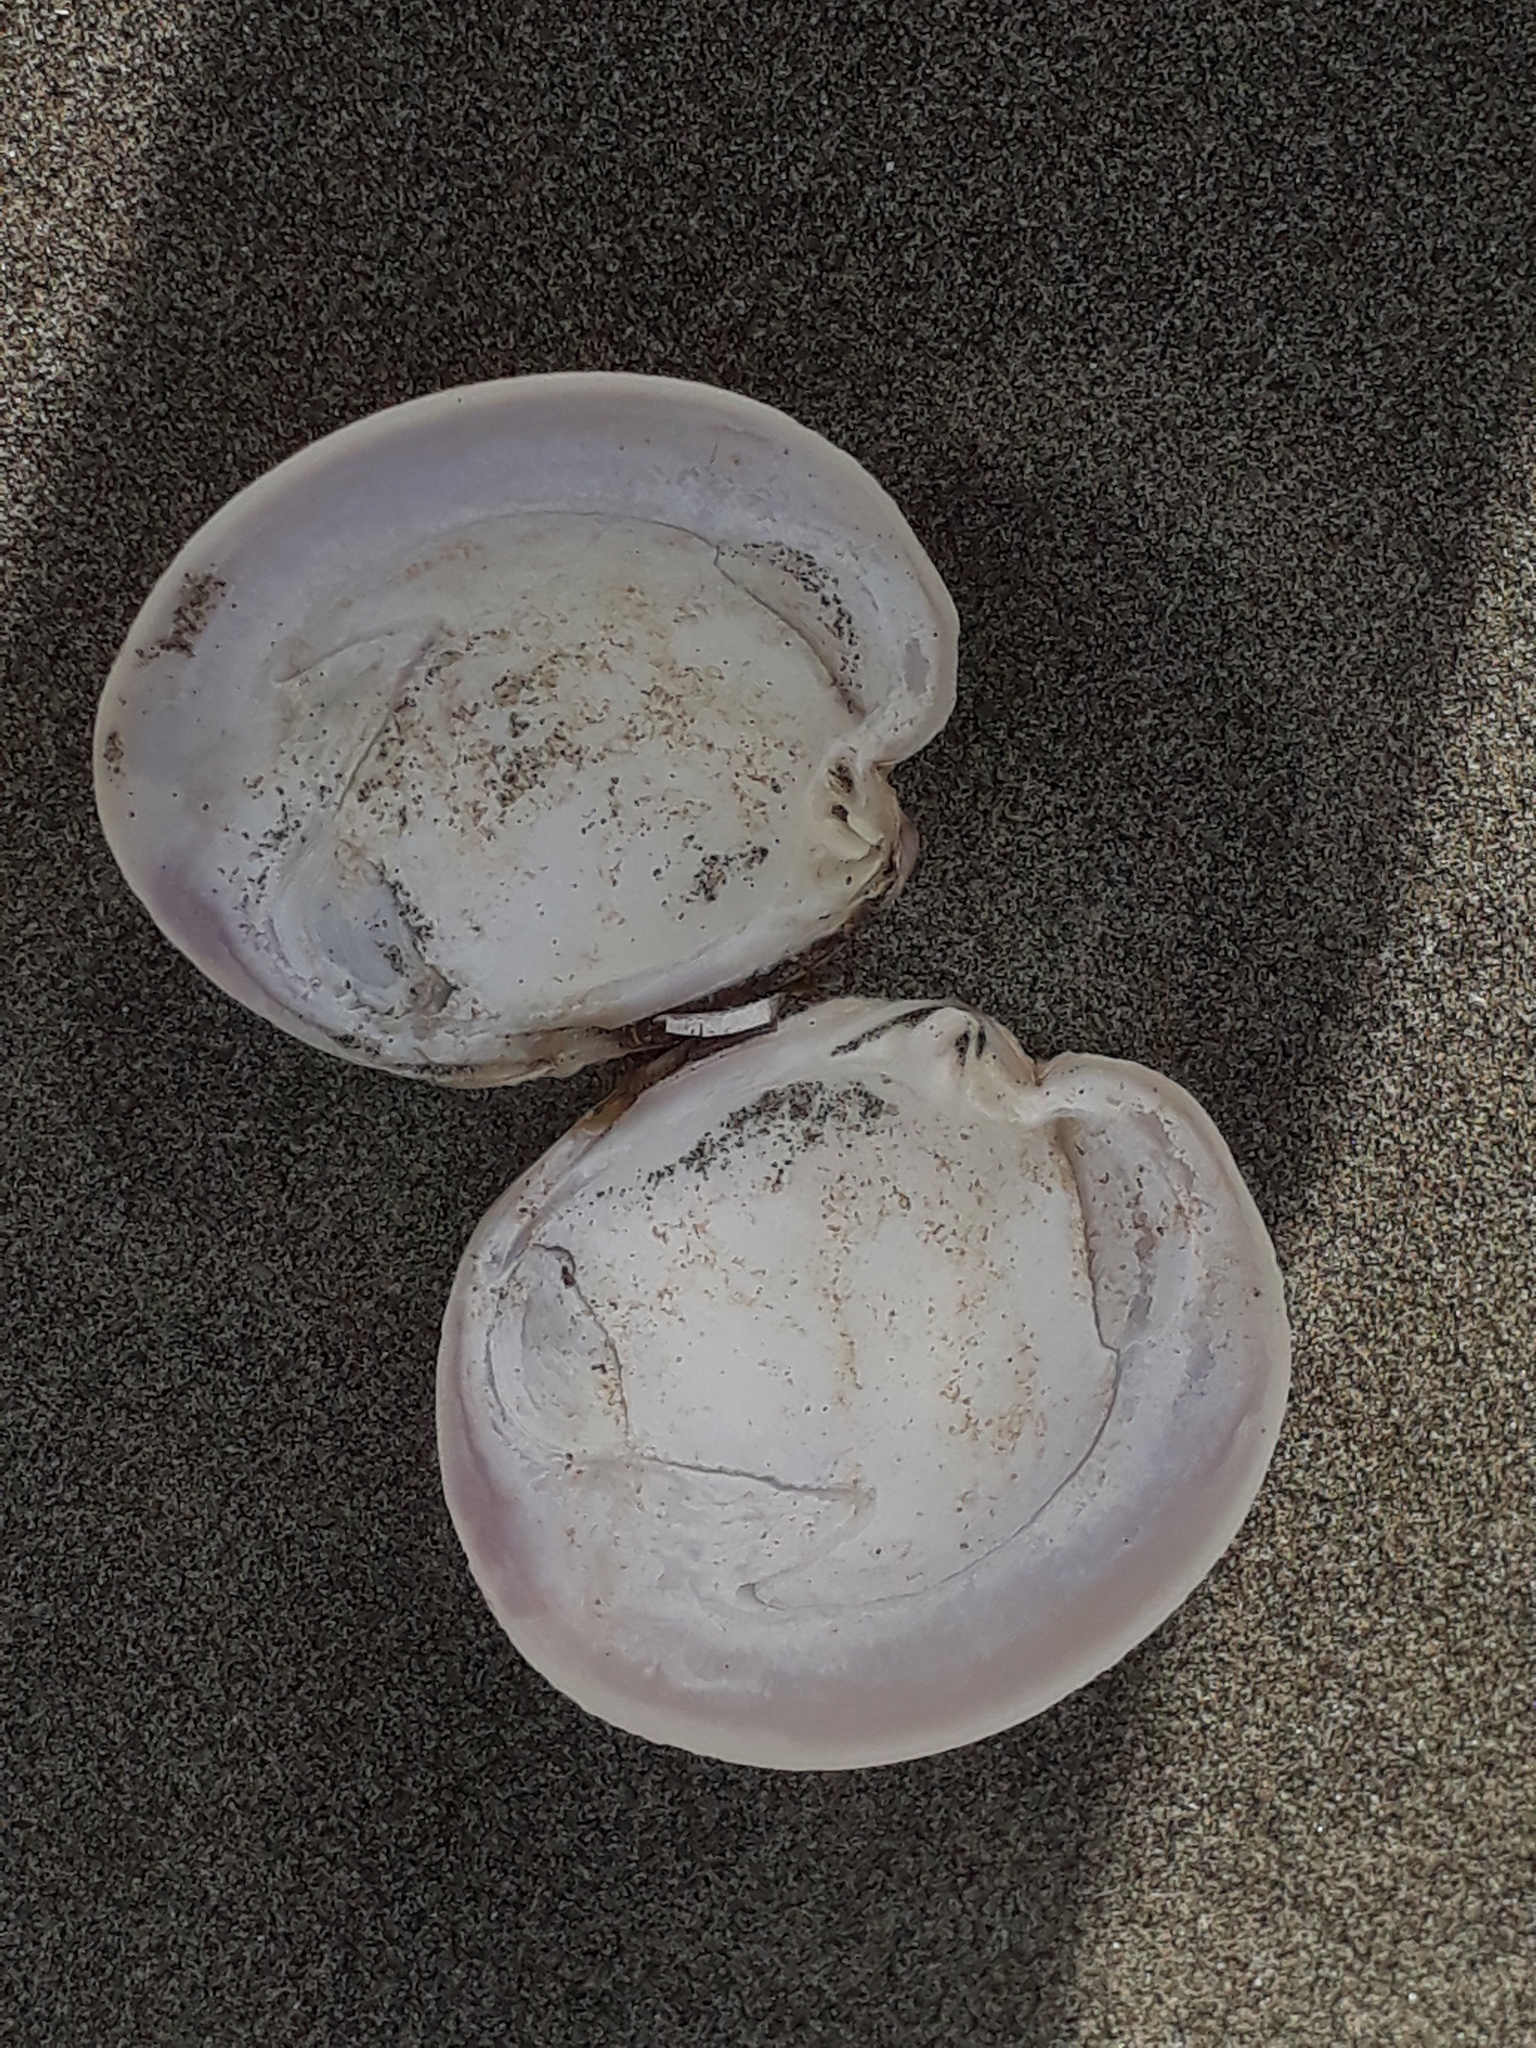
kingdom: Animalia
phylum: Mollusca
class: Bivalvia
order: Venerida
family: Veneridae
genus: Dosinia
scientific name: Dosinia anus
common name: Old-woman dosinia
